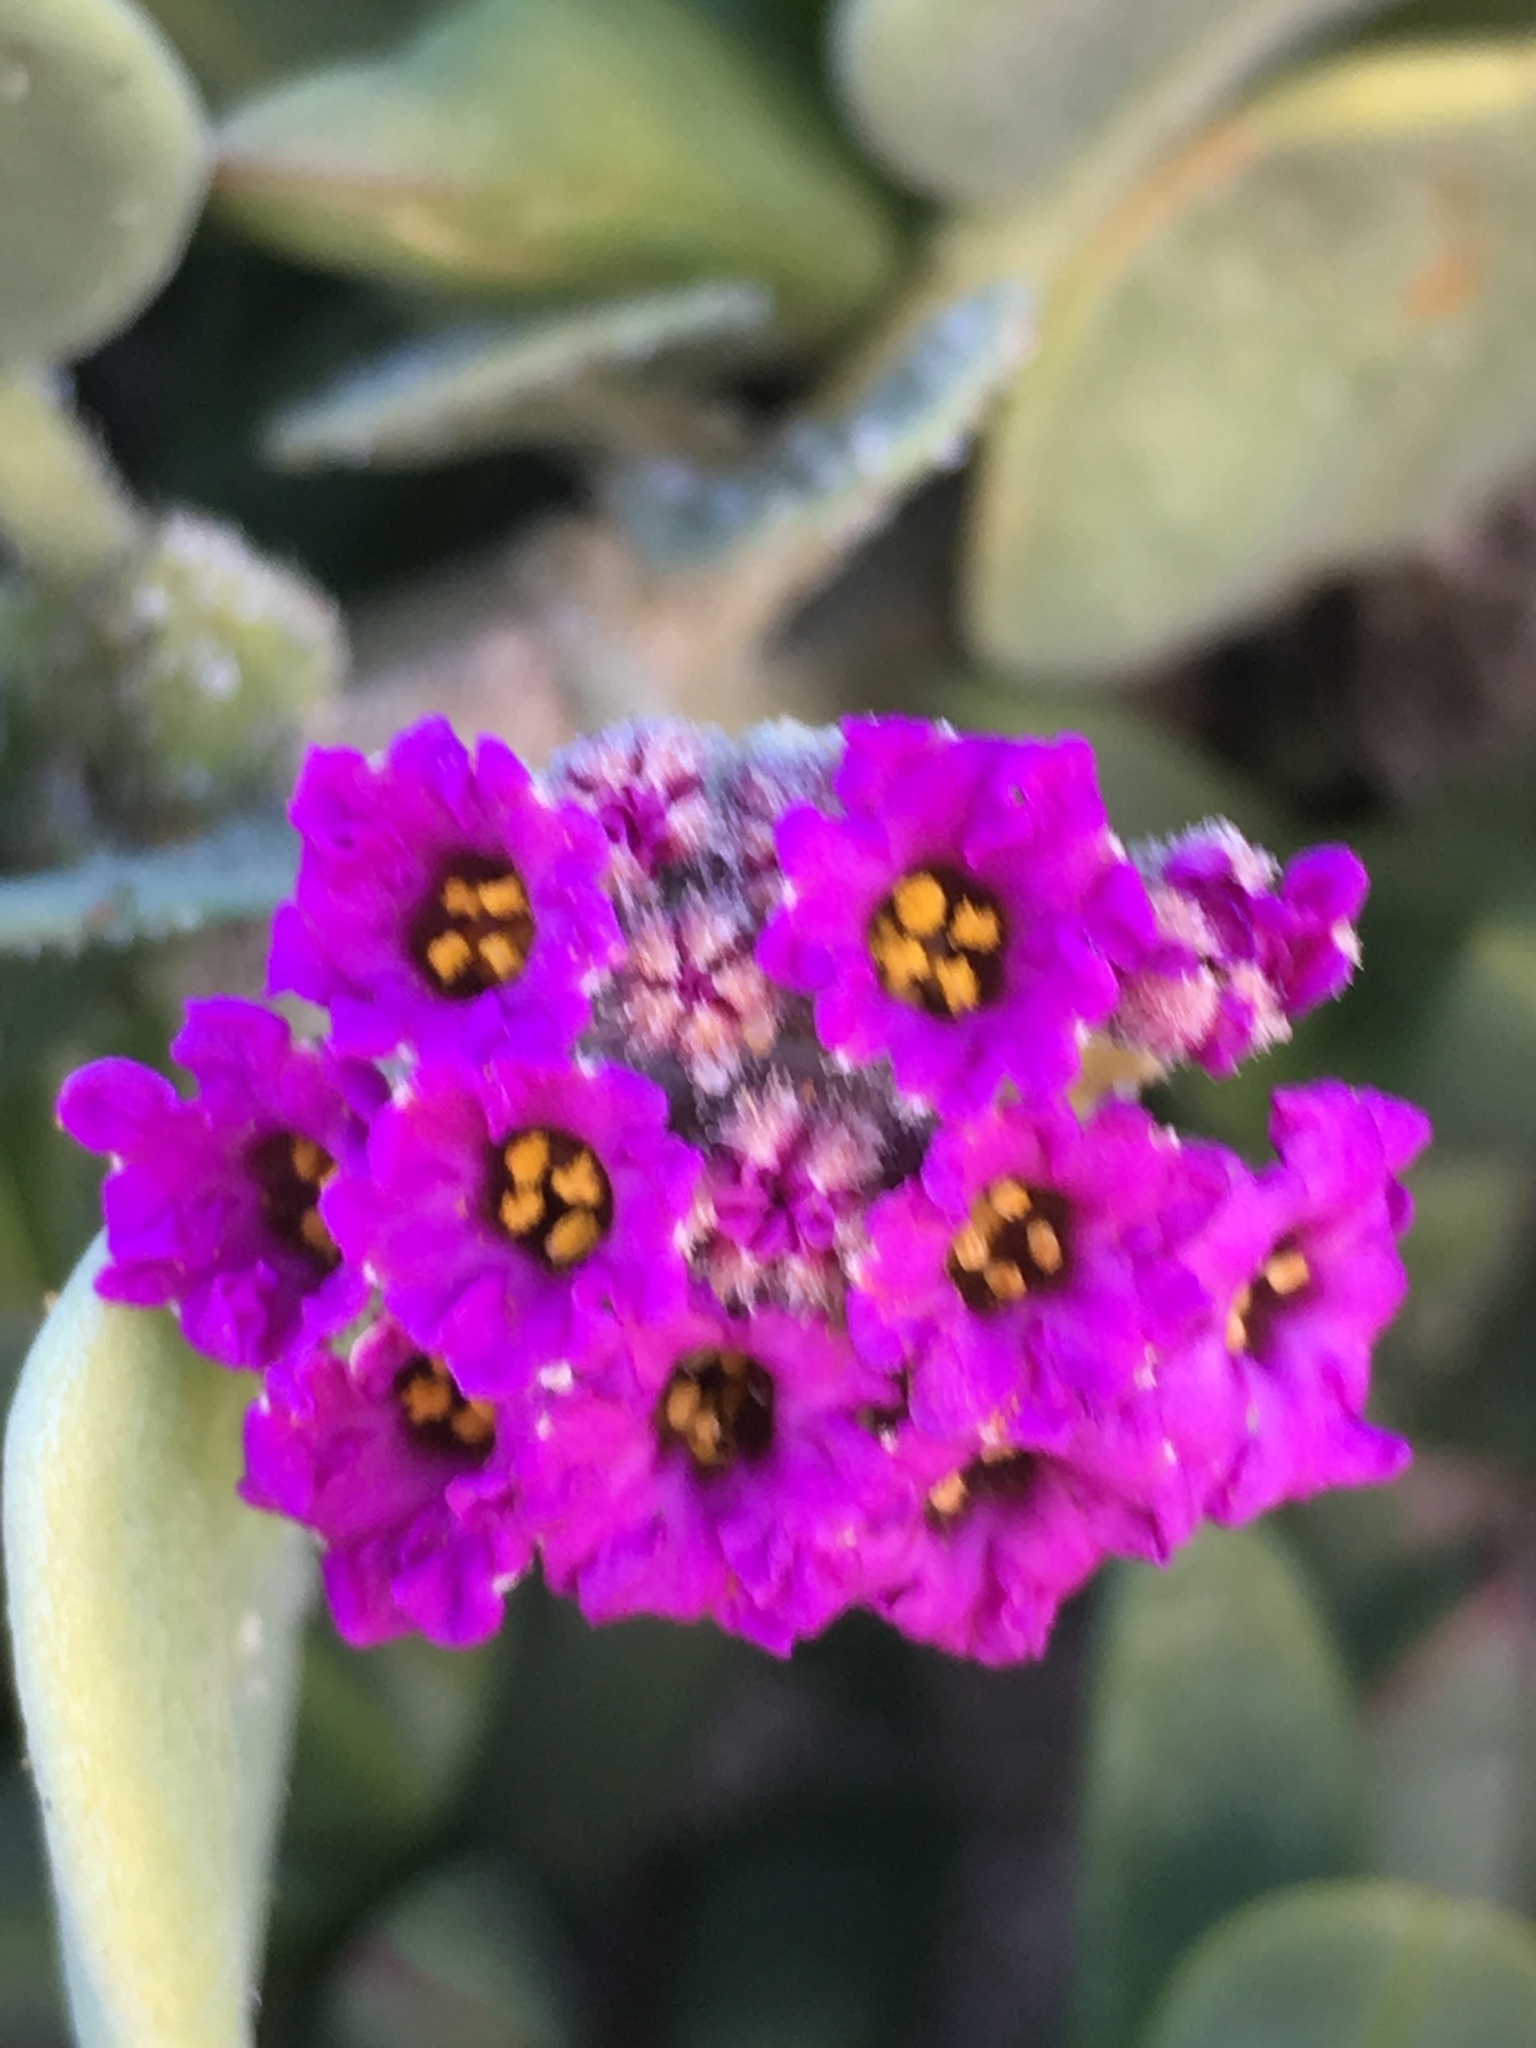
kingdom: Plantae
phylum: Tracheophyta
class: Magnoliopsida
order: Caryophyllales
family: Nyctaginaceae
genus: Abronia
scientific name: Abronia maritima
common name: Red sand-verbena
